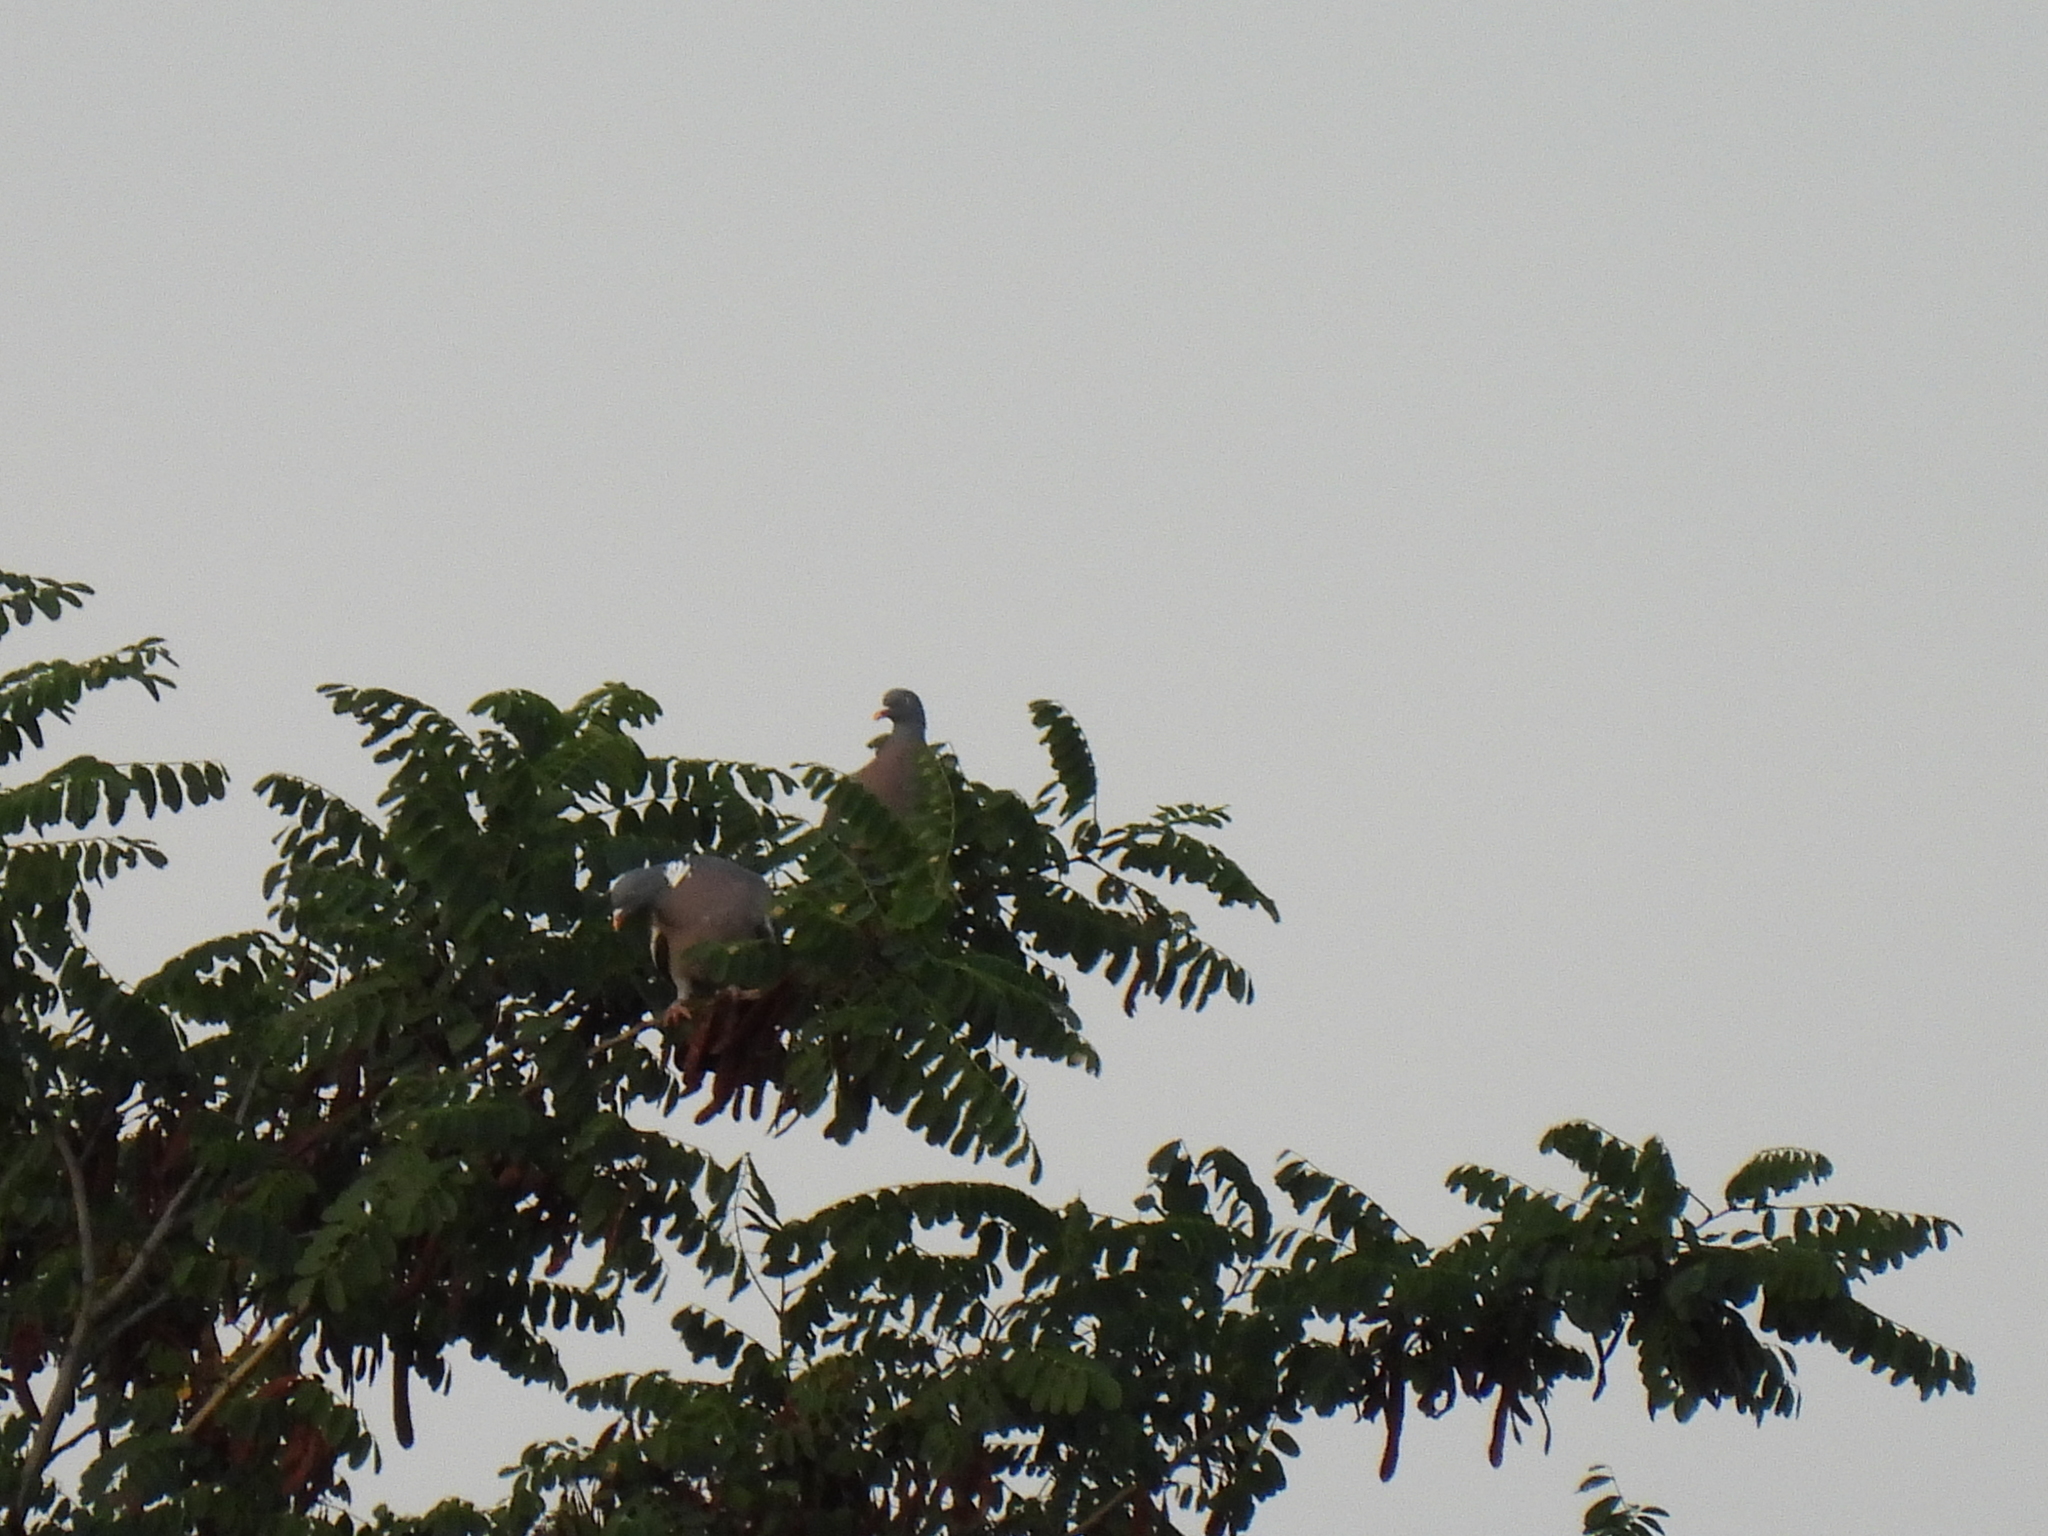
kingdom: Animalia
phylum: Chordata
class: Aves
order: Columbiformes
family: Columbidae
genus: Columba
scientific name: Columba palumbus
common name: Common wood pigeon
